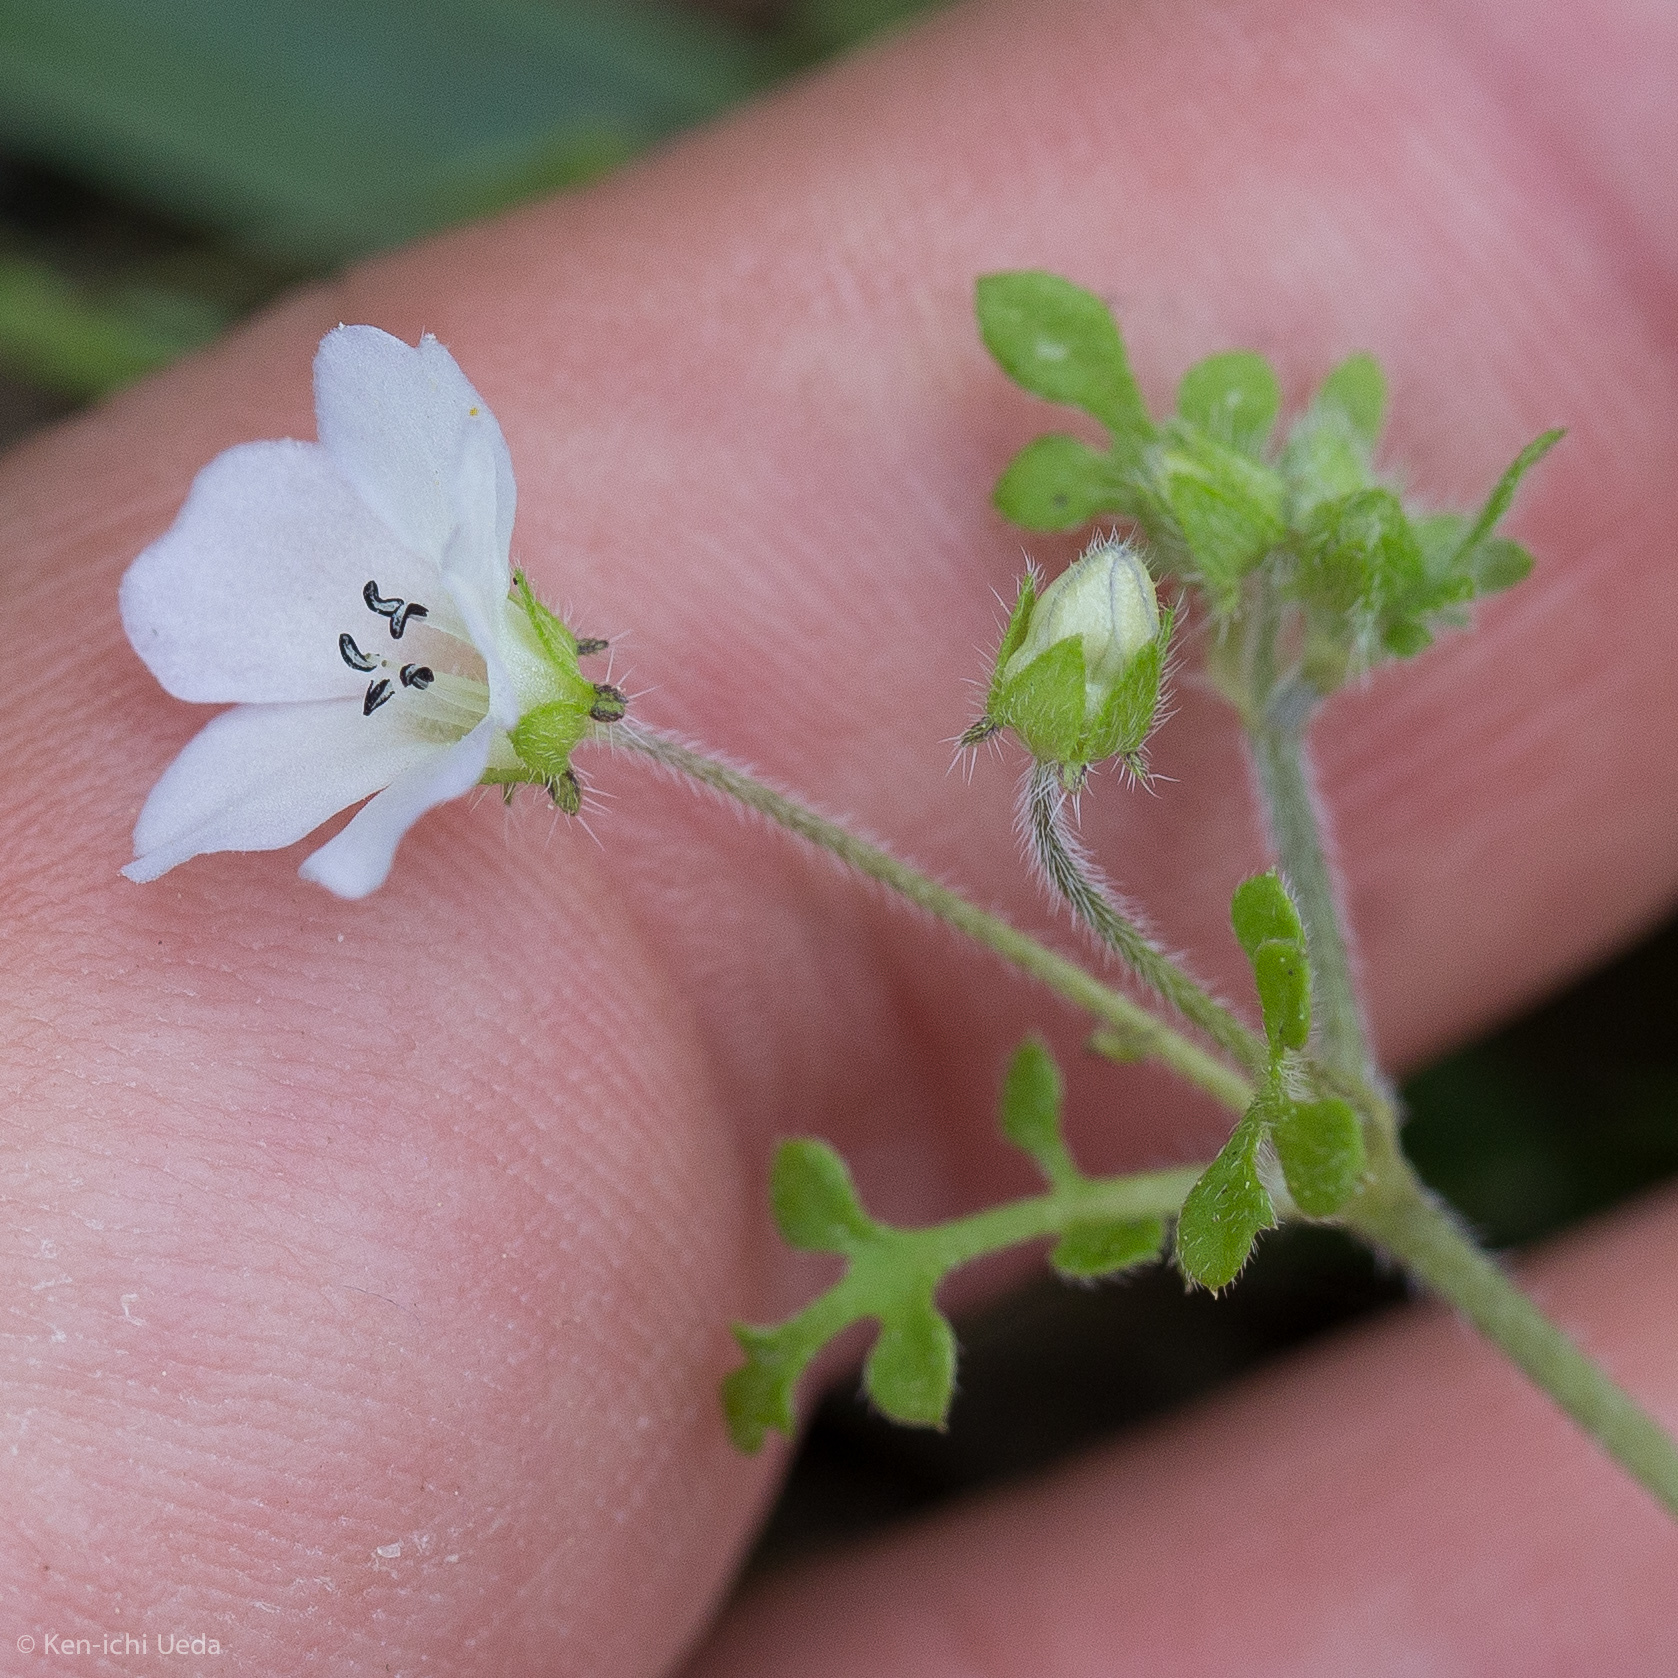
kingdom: Plantae
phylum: Tracheophyta
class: Magnoliopsida
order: Boraginales
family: Hydrophyllaceae
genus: Nemophila
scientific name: Nemophila heterophylla
